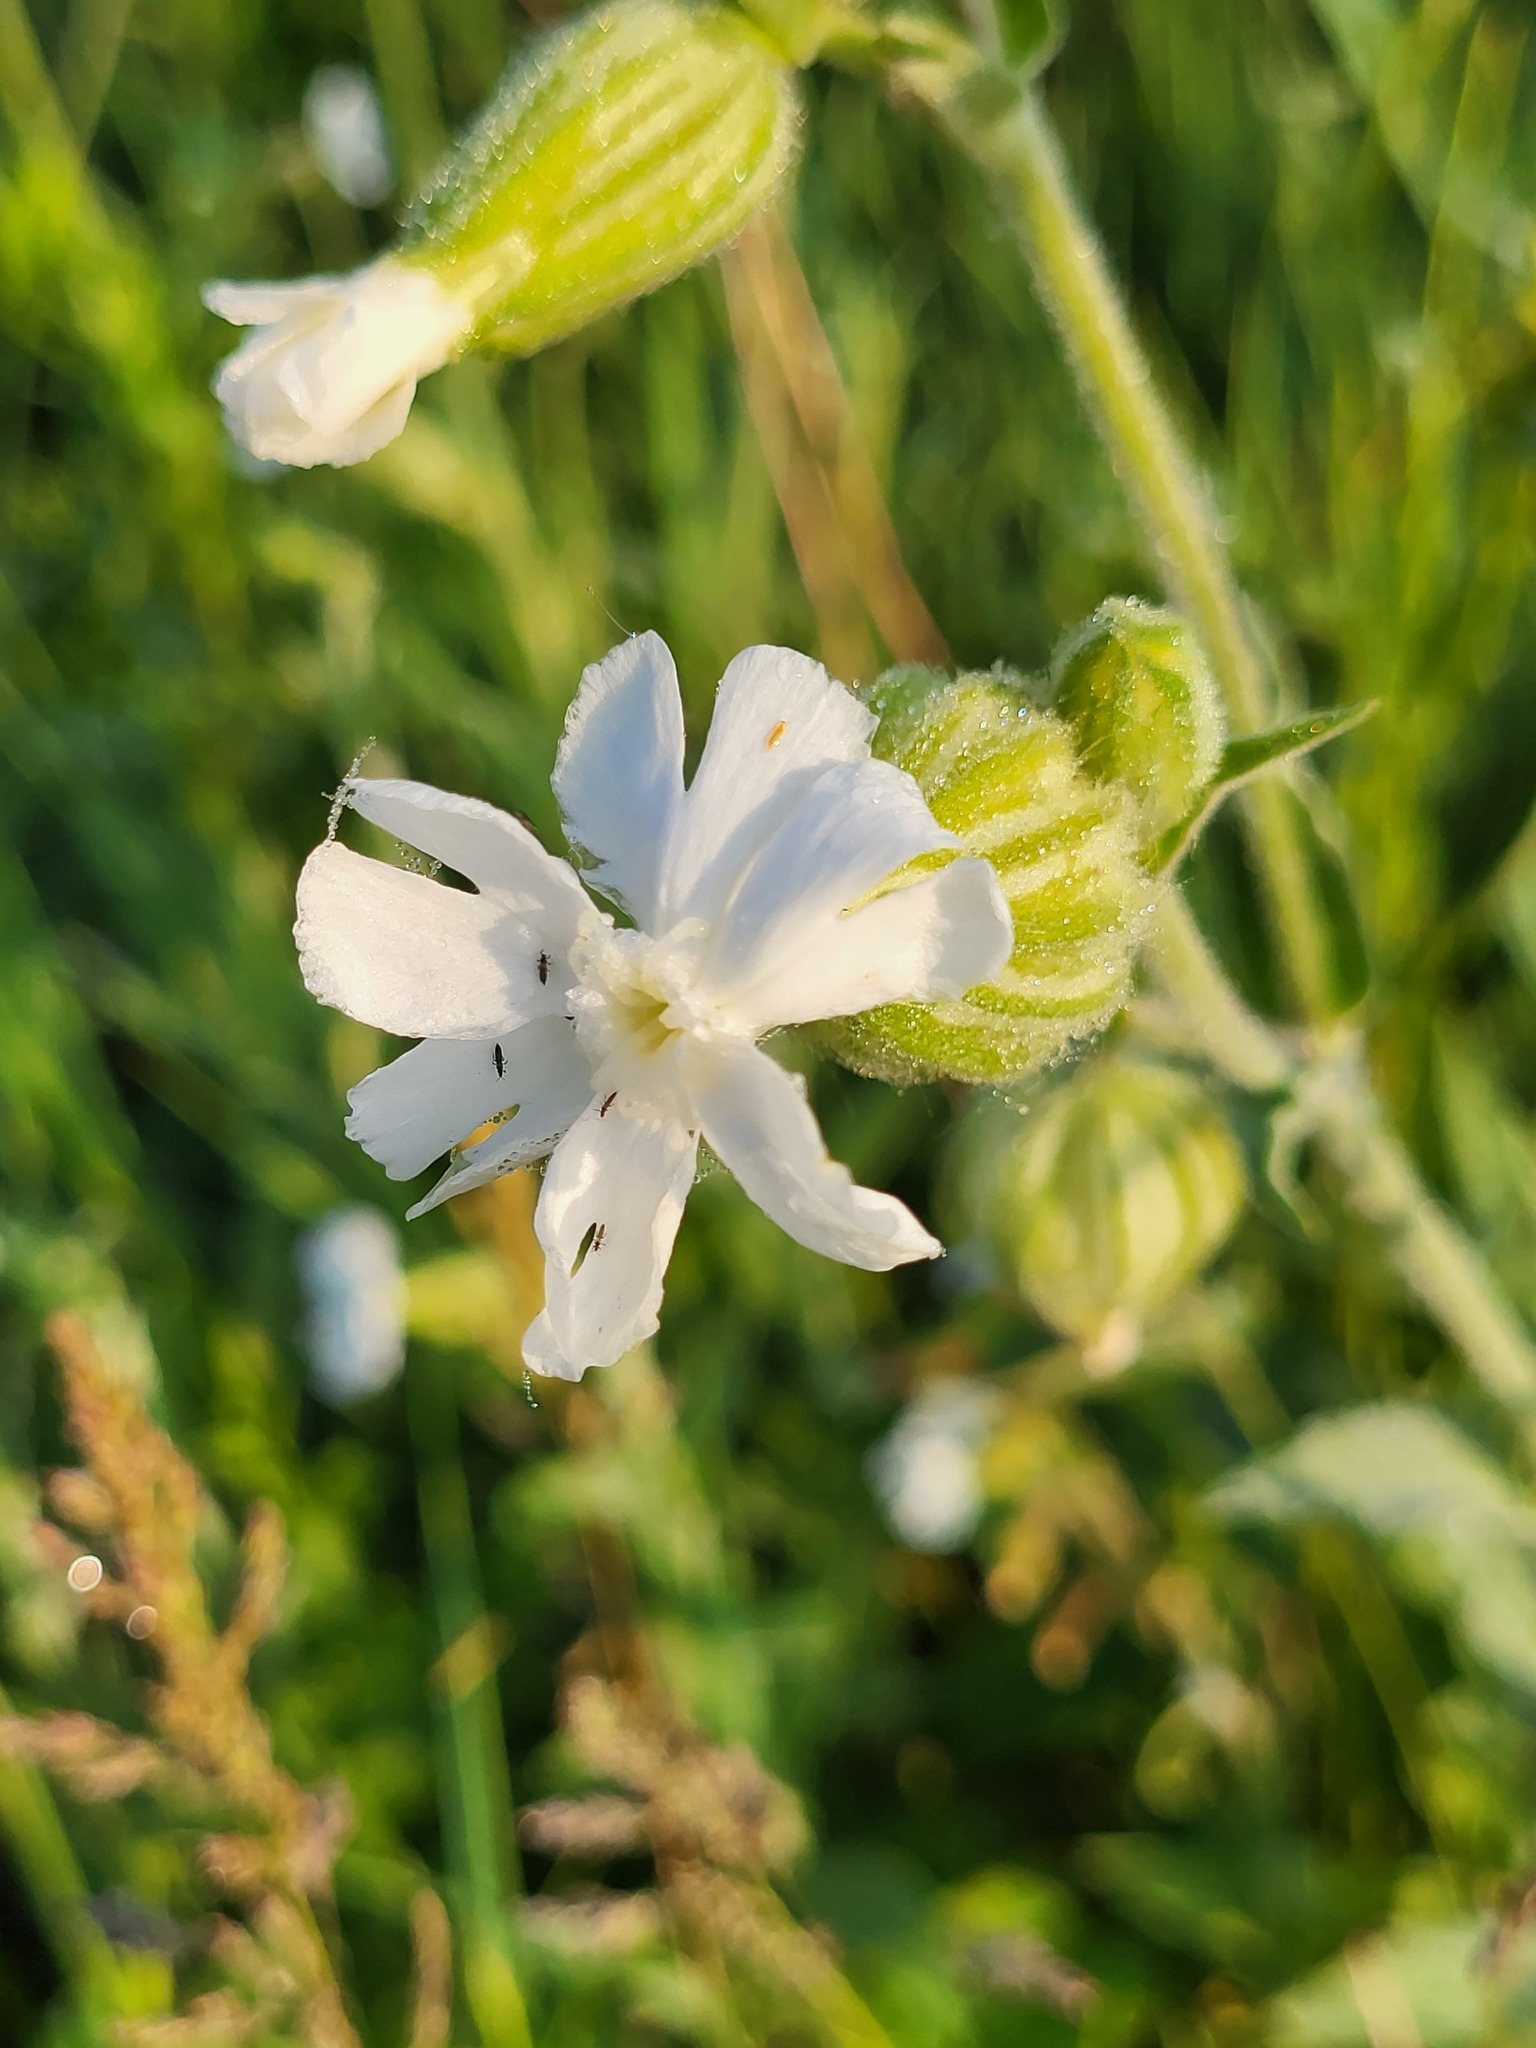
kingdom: Plantae
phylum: Tracheophyta
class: Magnoliopsida
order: Caryophyllales
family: Caryophyllaceae
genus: Silene
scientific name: Silene latifolia
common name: White campion
